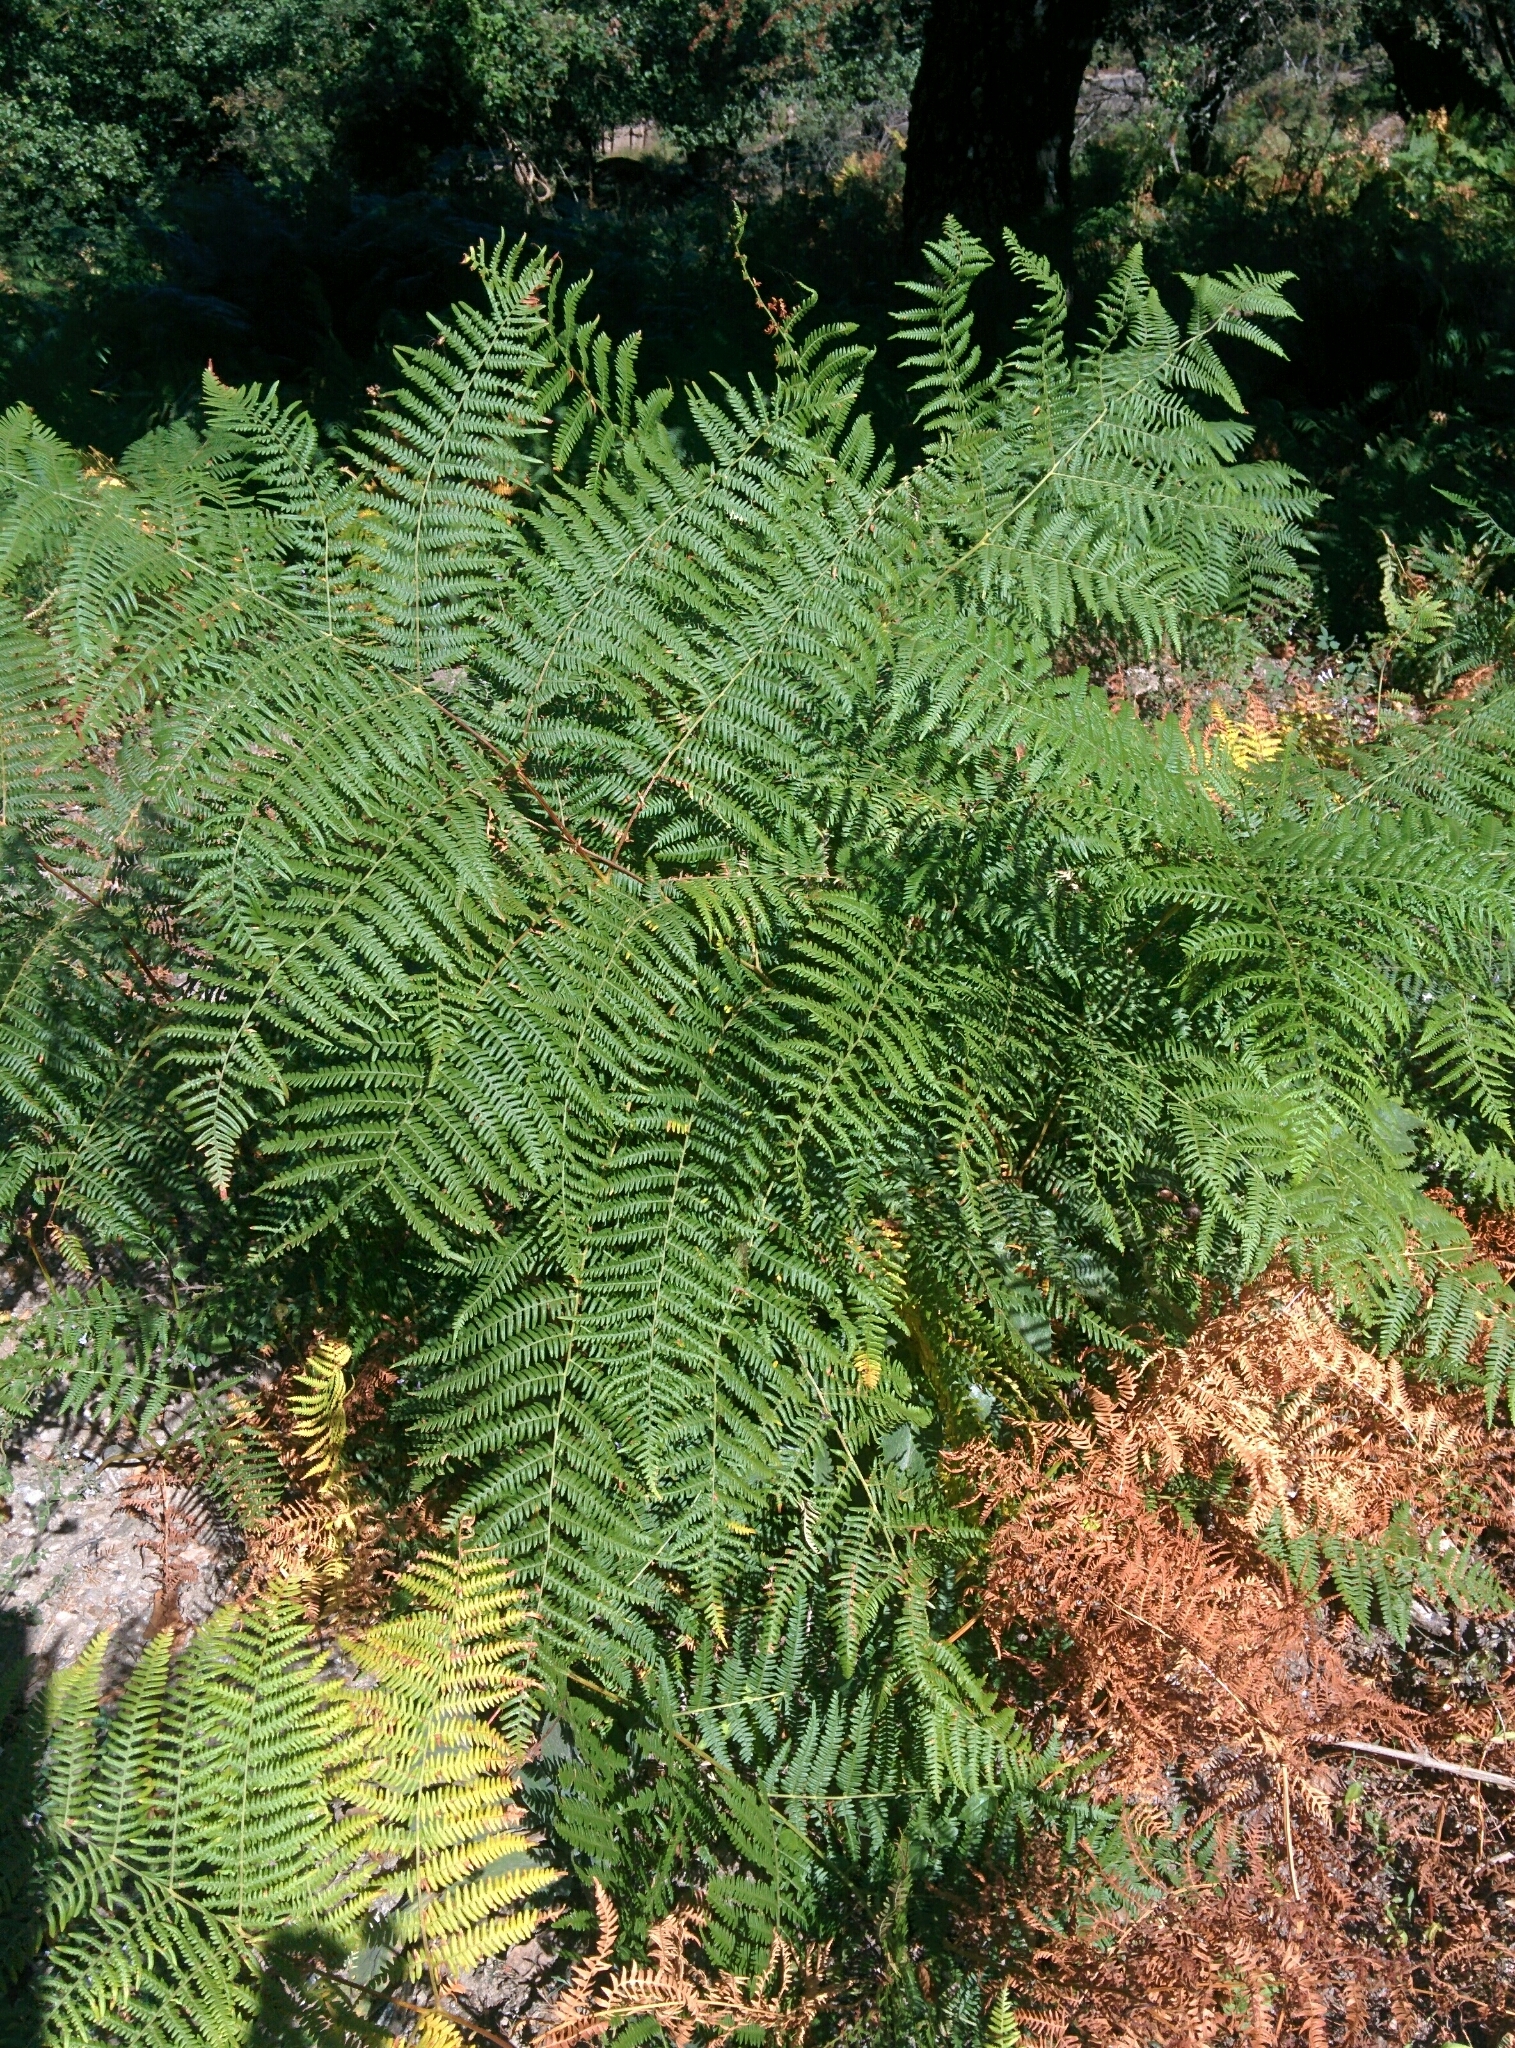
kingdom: Plantae
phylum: Tracheophyta
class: Polypodiopsida
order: Polypodiales
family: Dennstaedtiaceae
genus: Pteridium
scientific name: Pteridium aquilinum
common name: Bracken
